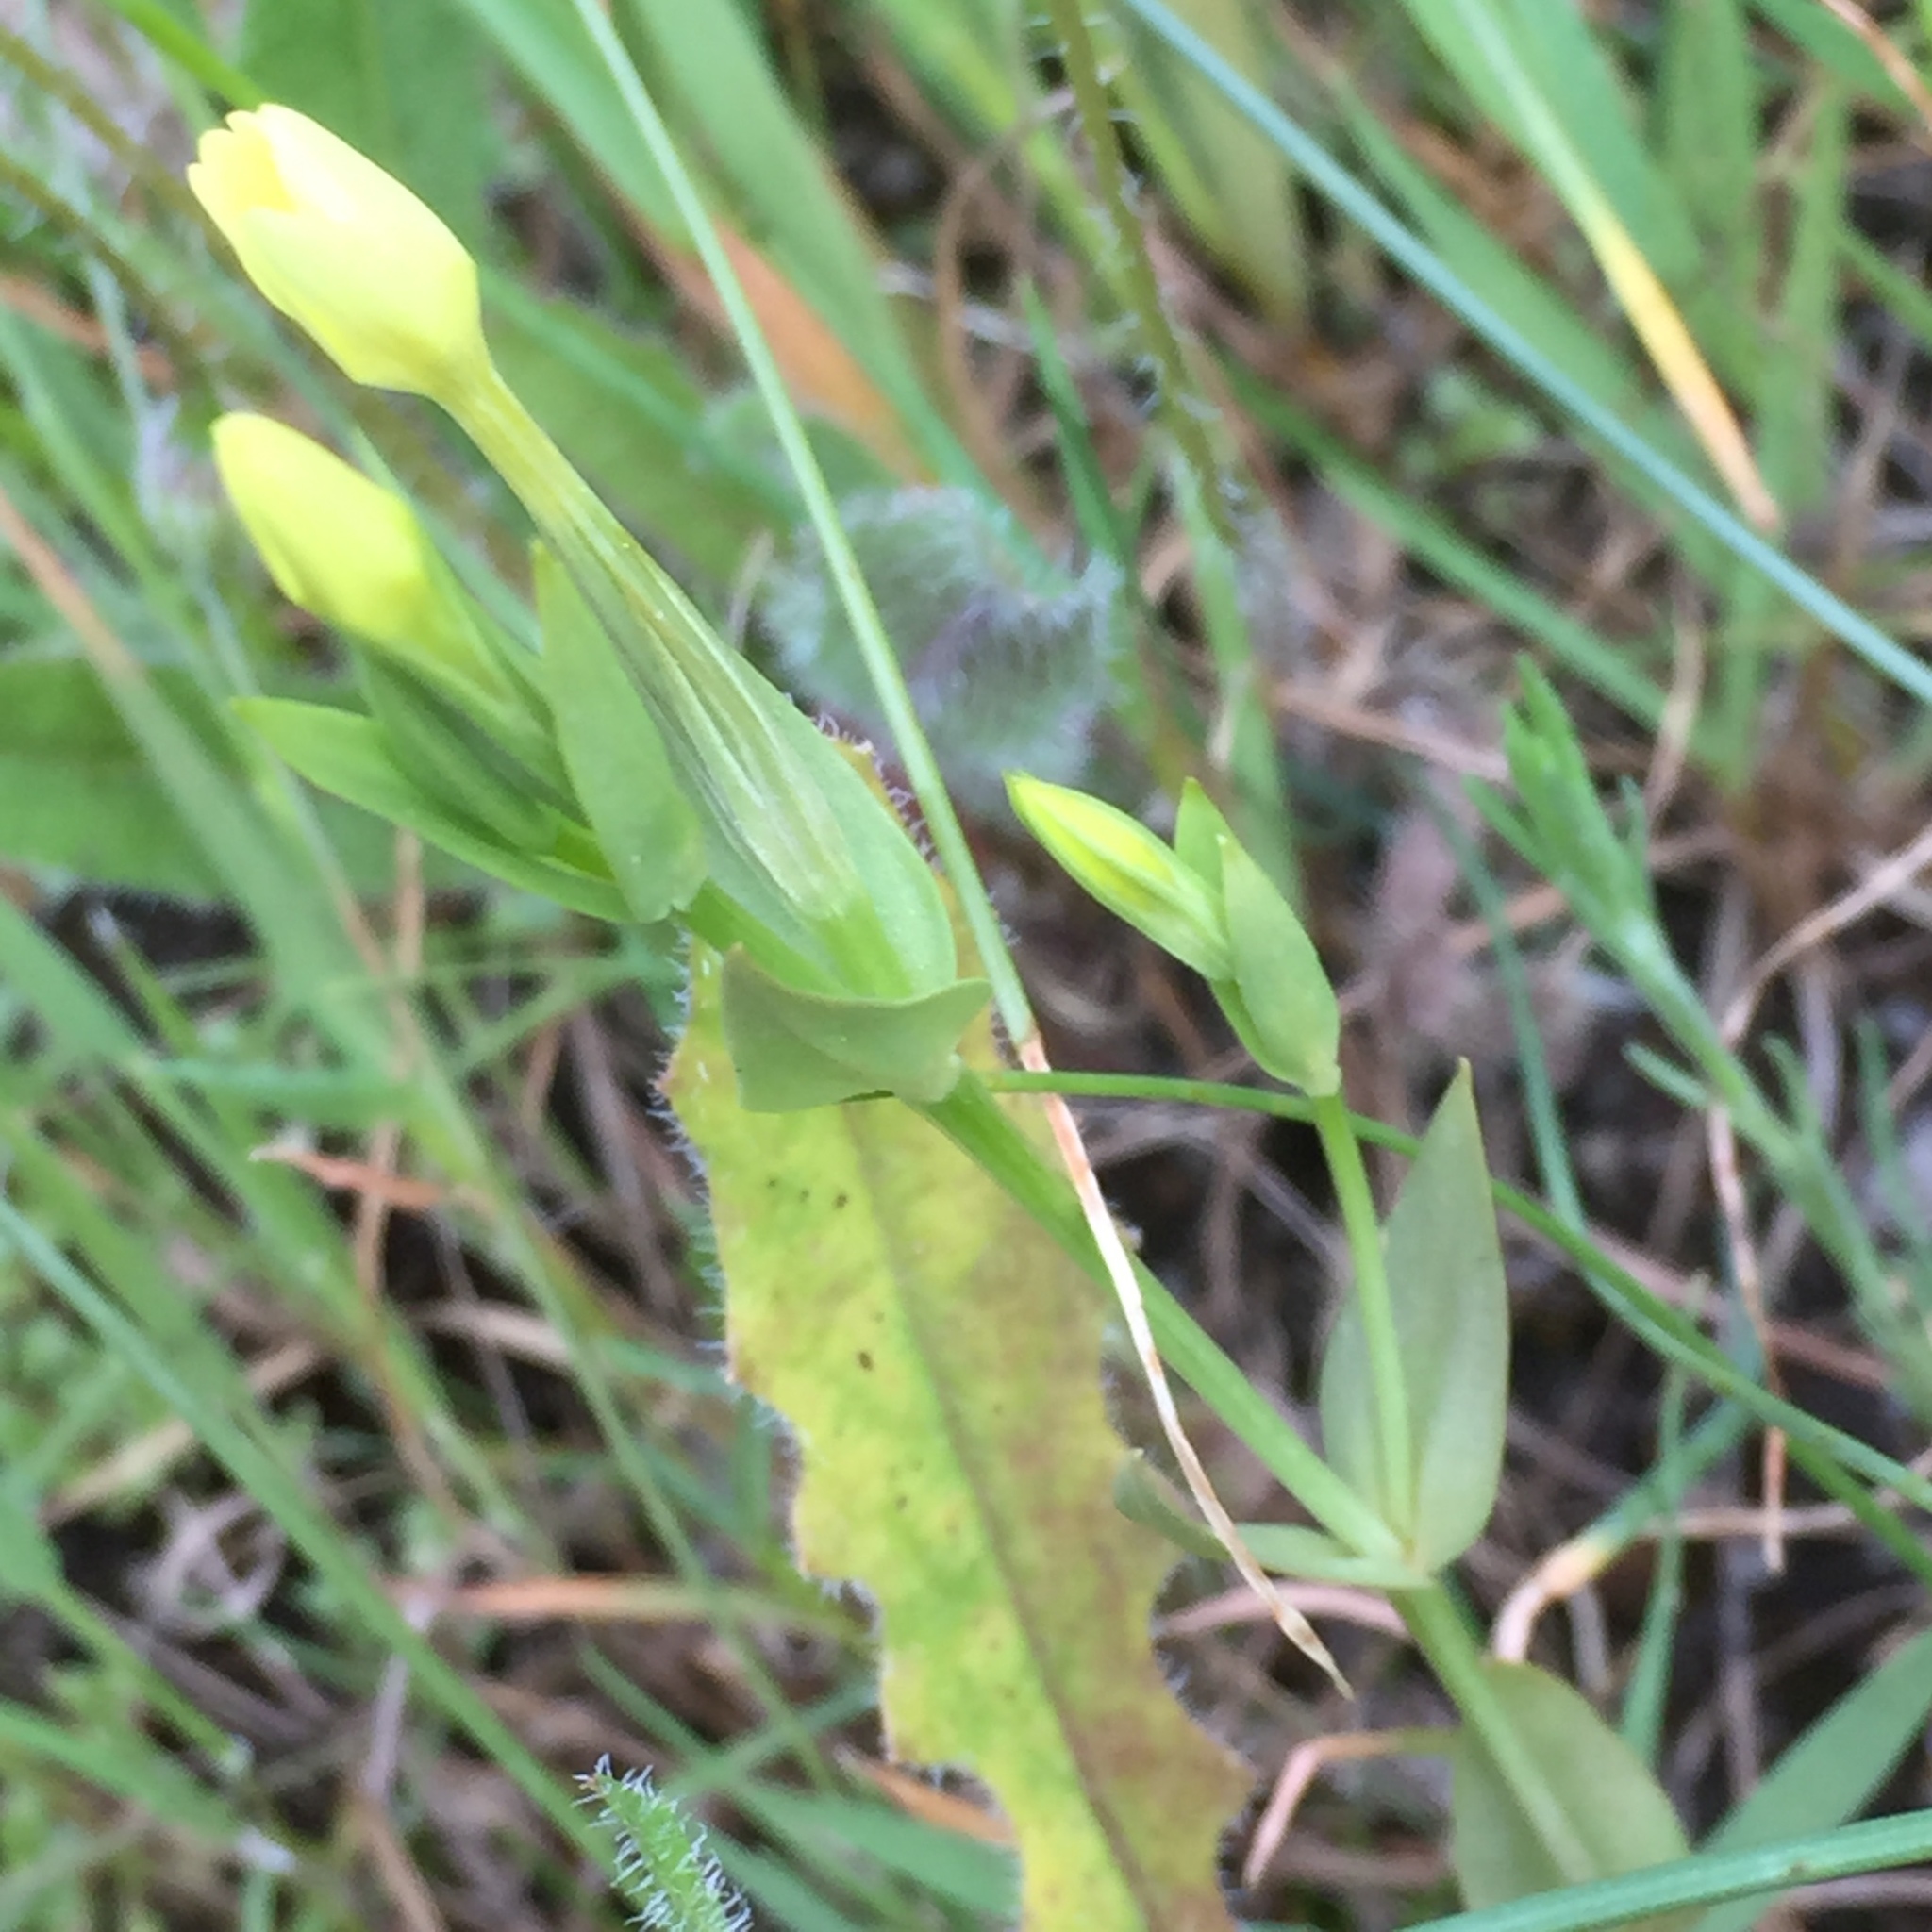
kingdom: Plantae
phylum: Tracheophyta
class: Magnoliopsida
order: Gentianales
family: Gentianaceae
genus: Centaurium
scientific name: Centaurium maritimum
